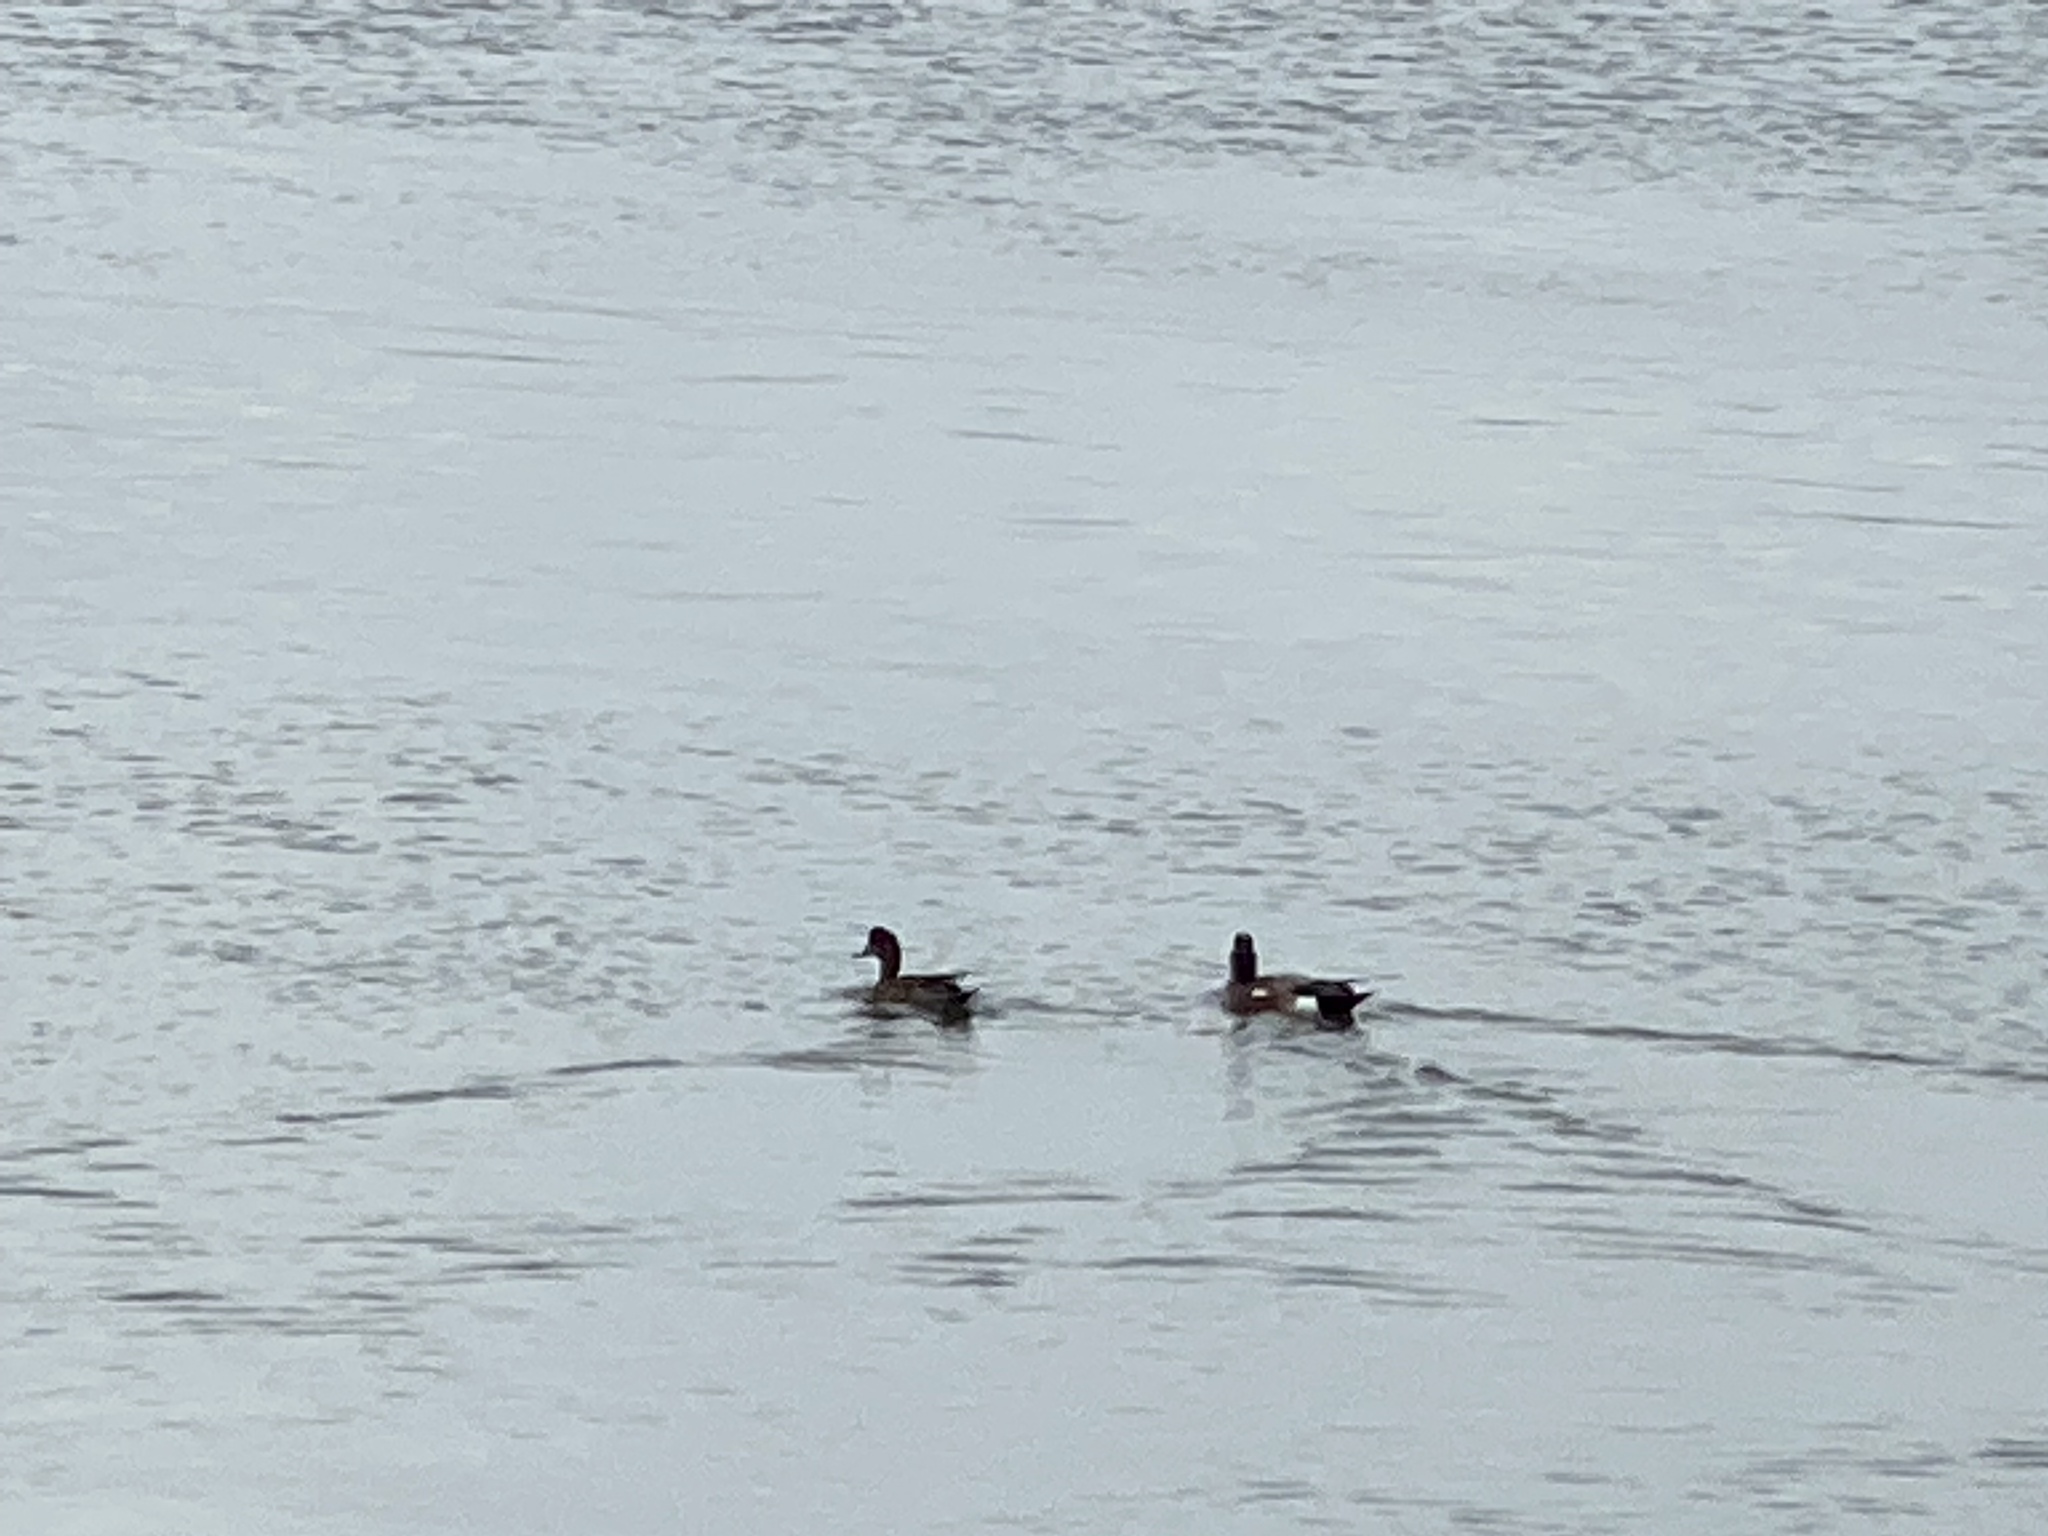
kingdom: Animalia
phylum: Chordata
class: Aves
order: Anseriformes
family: Anatidae
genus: Mareca
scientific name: Mareca americana
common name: American wigeon
